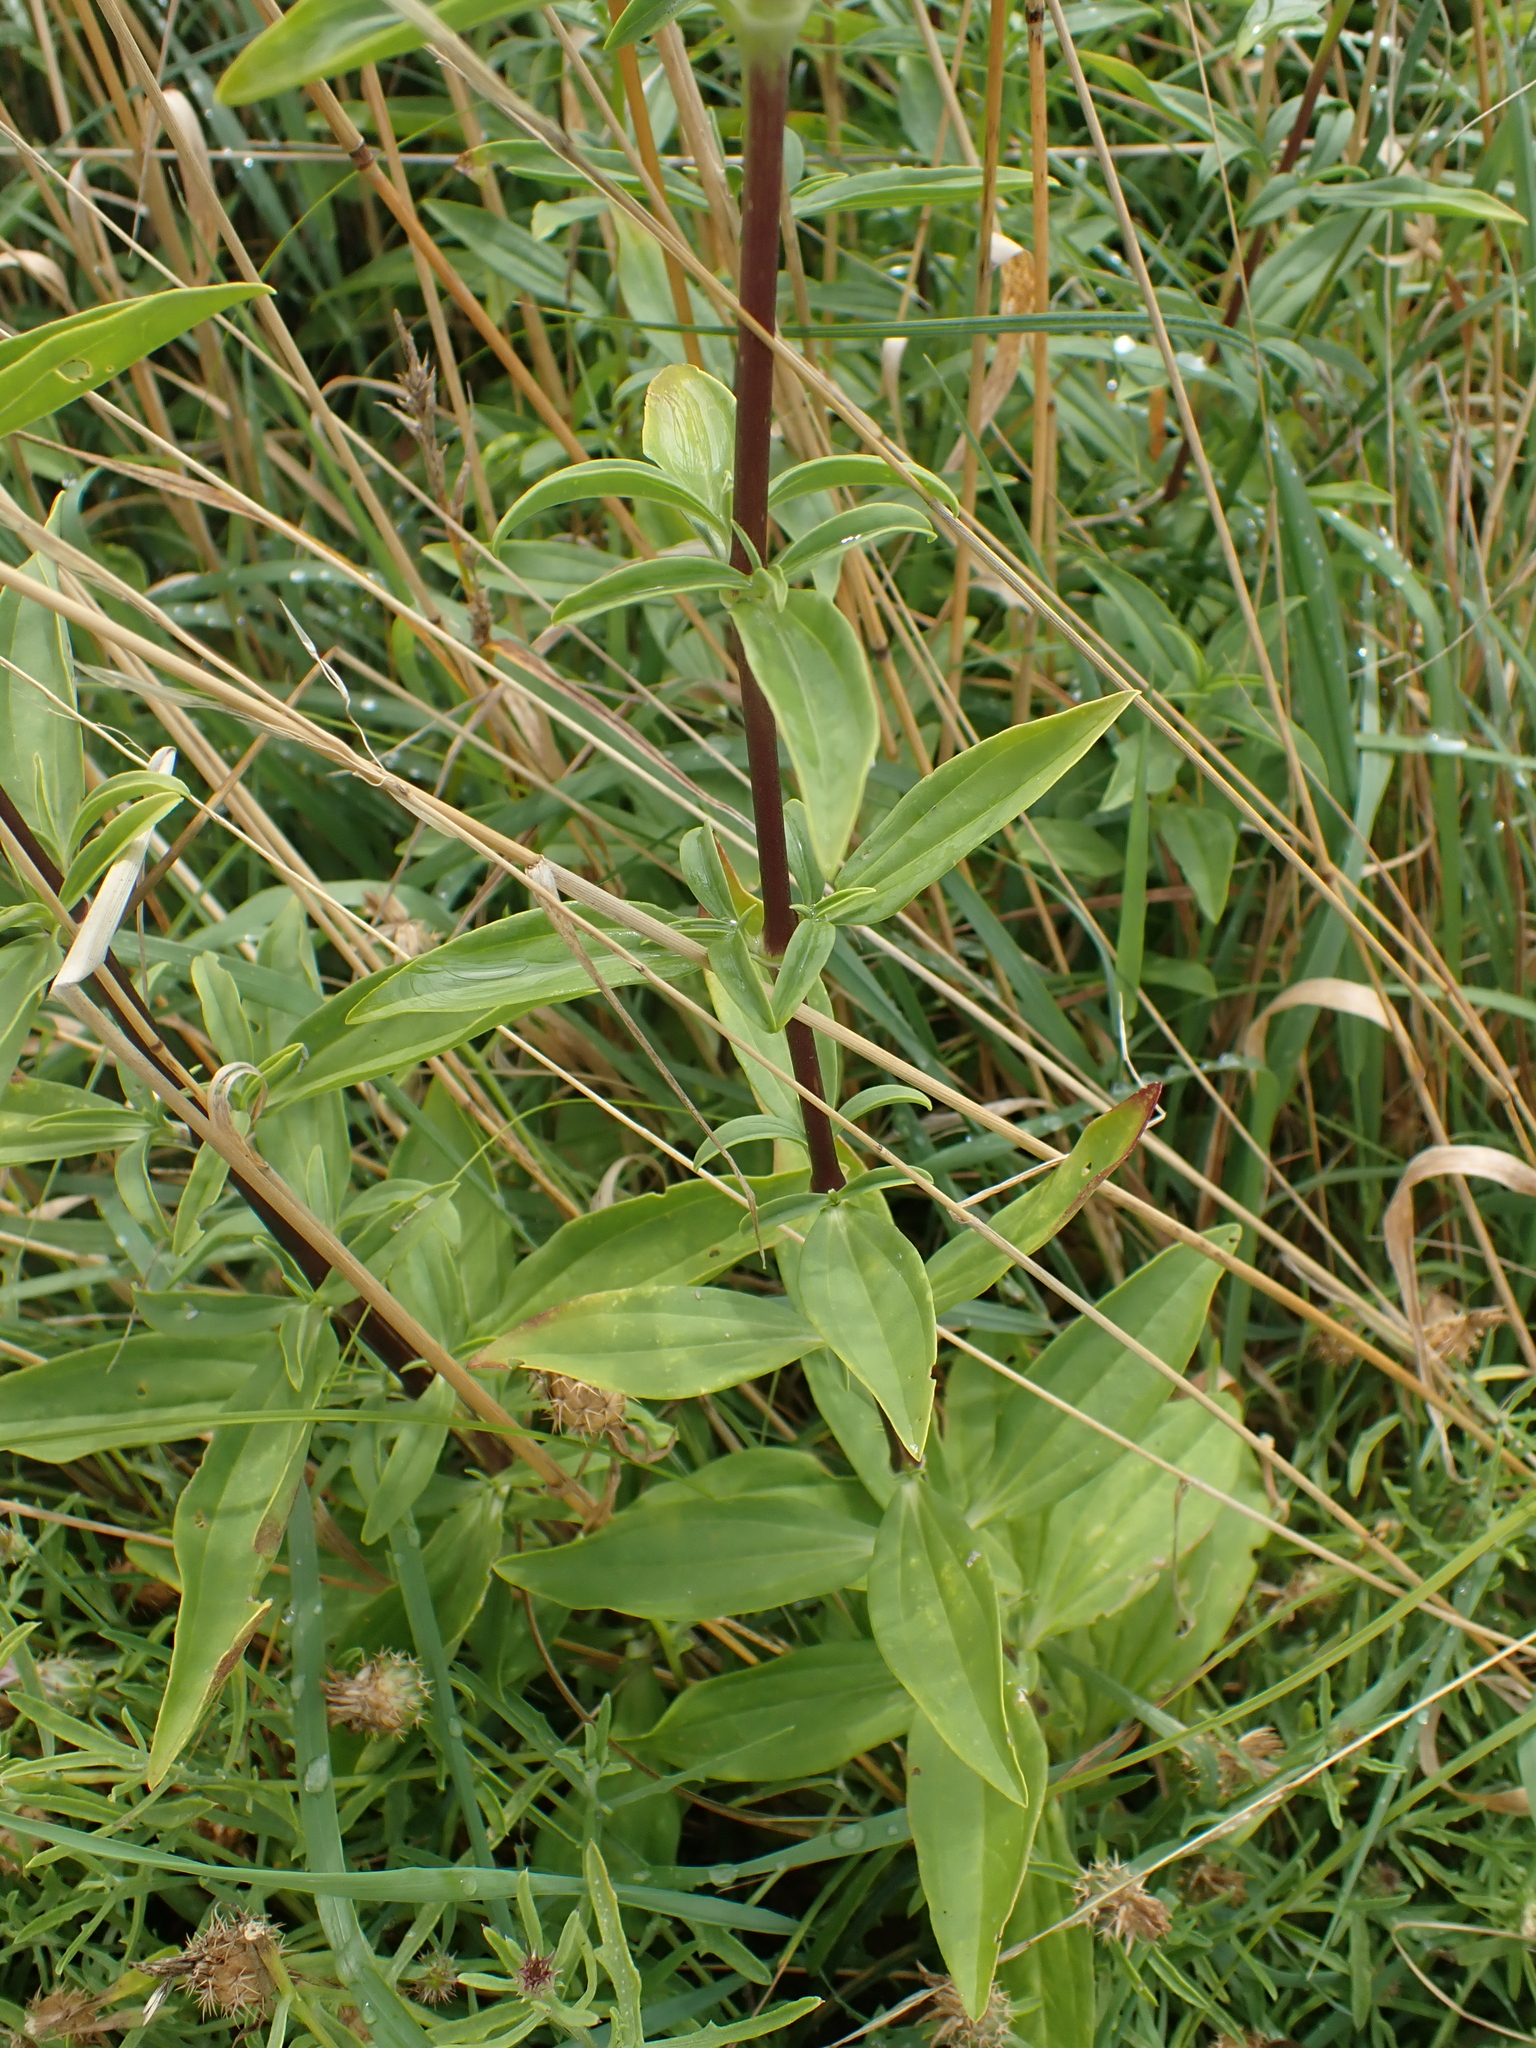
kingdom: Plantae
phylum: Tracheophyta
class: Magnoliopsida
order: Caryophyllales
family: Caryophyllaceae
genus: Saponaria
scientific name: Saponaria officinalis
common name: Soapwort
